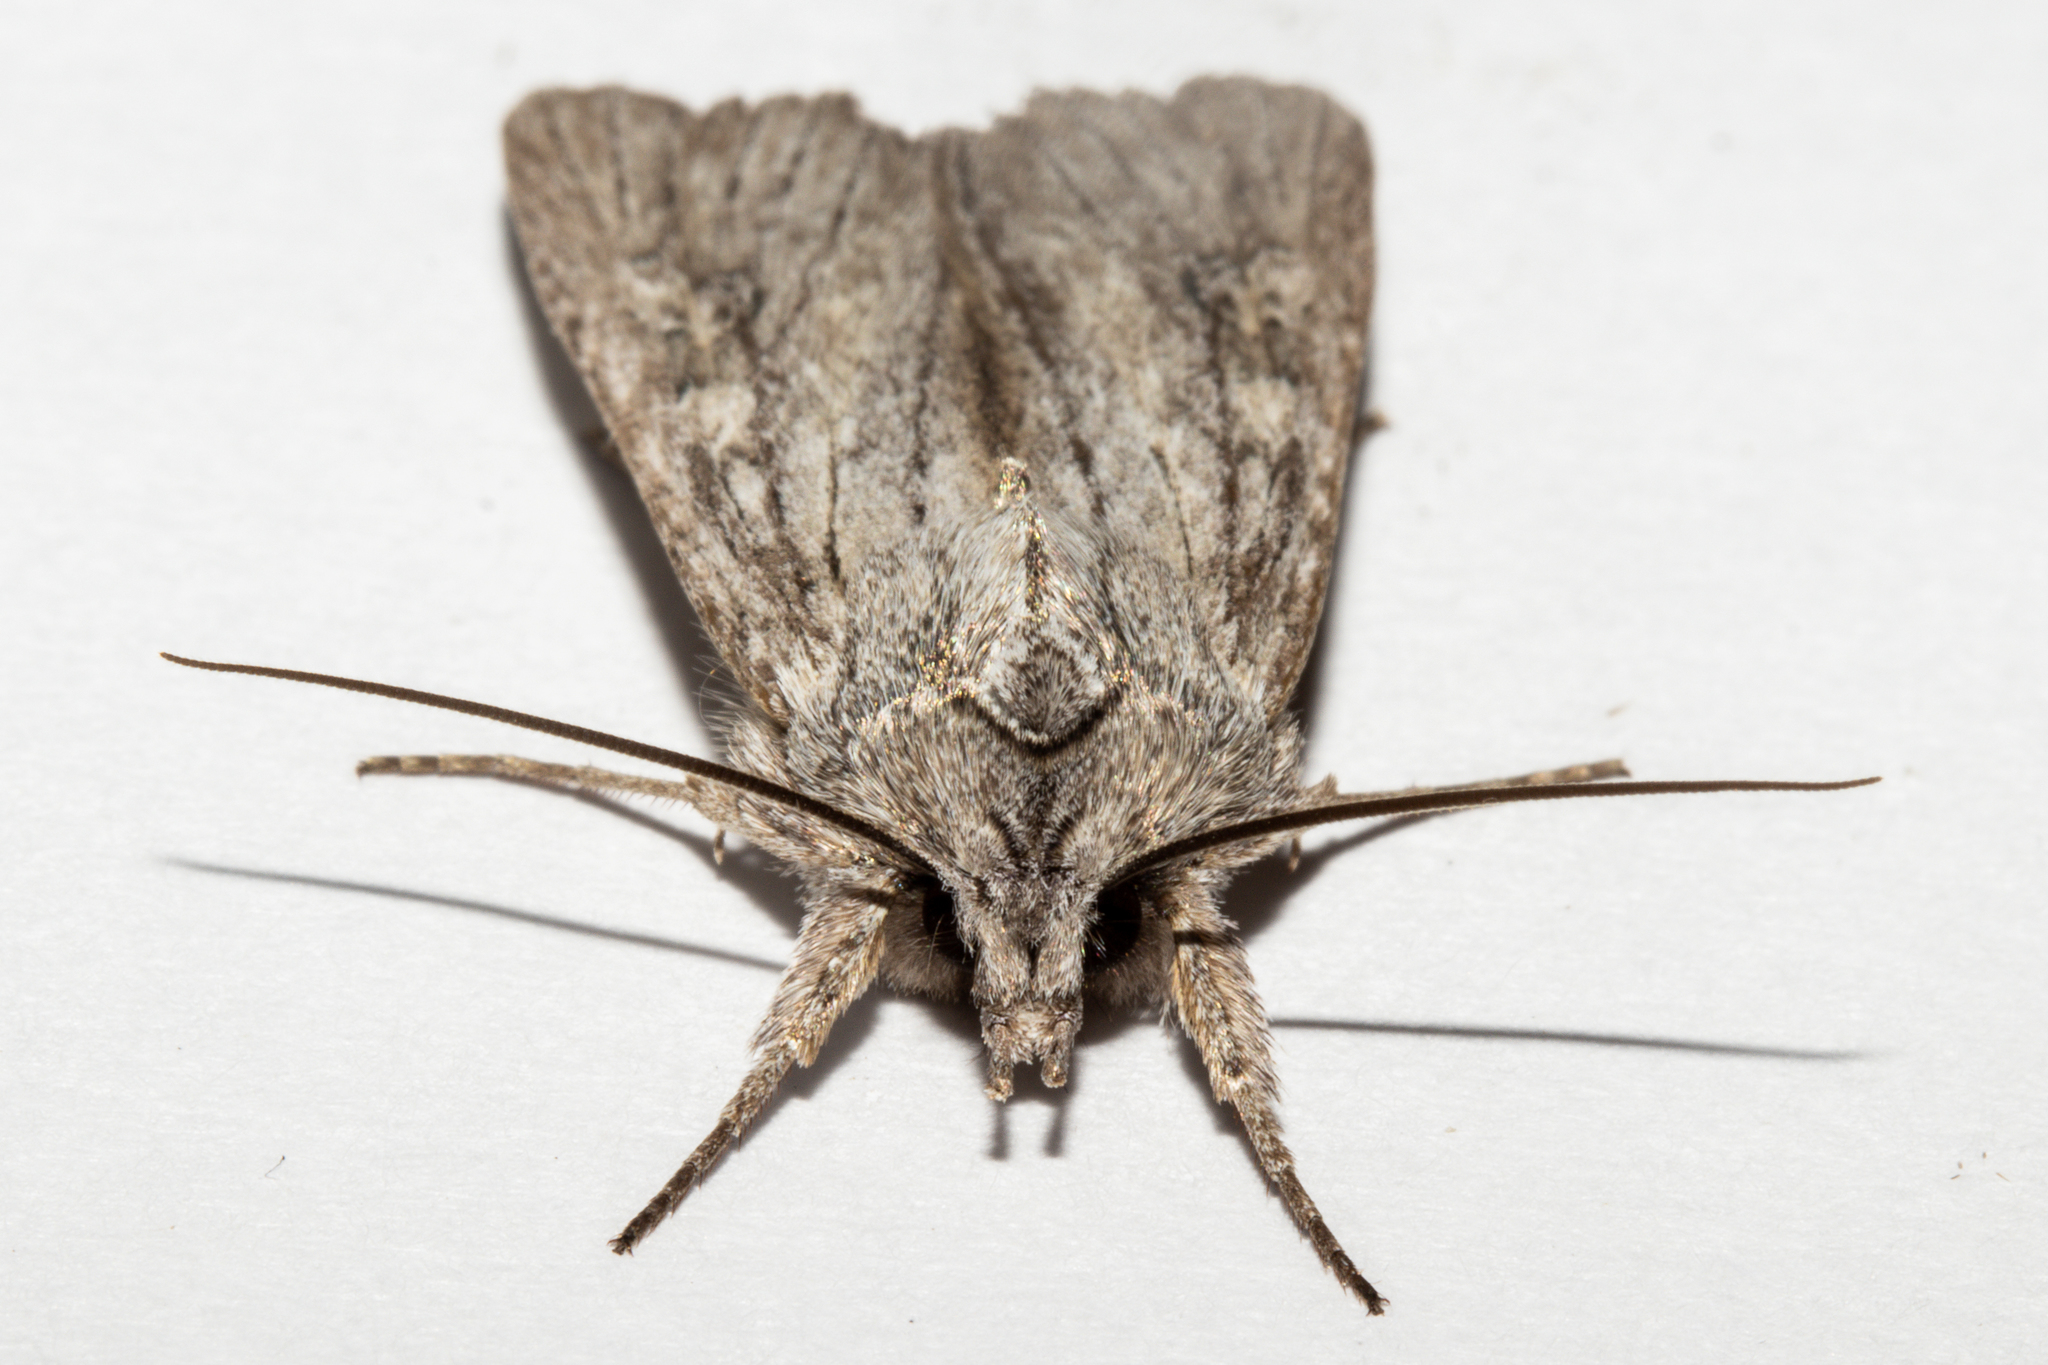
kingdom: Animalia
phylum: Arthropoda
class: Insecta
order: Lepidoptera
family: Noctuidae
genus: Physetica
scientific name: Physetica phricias
